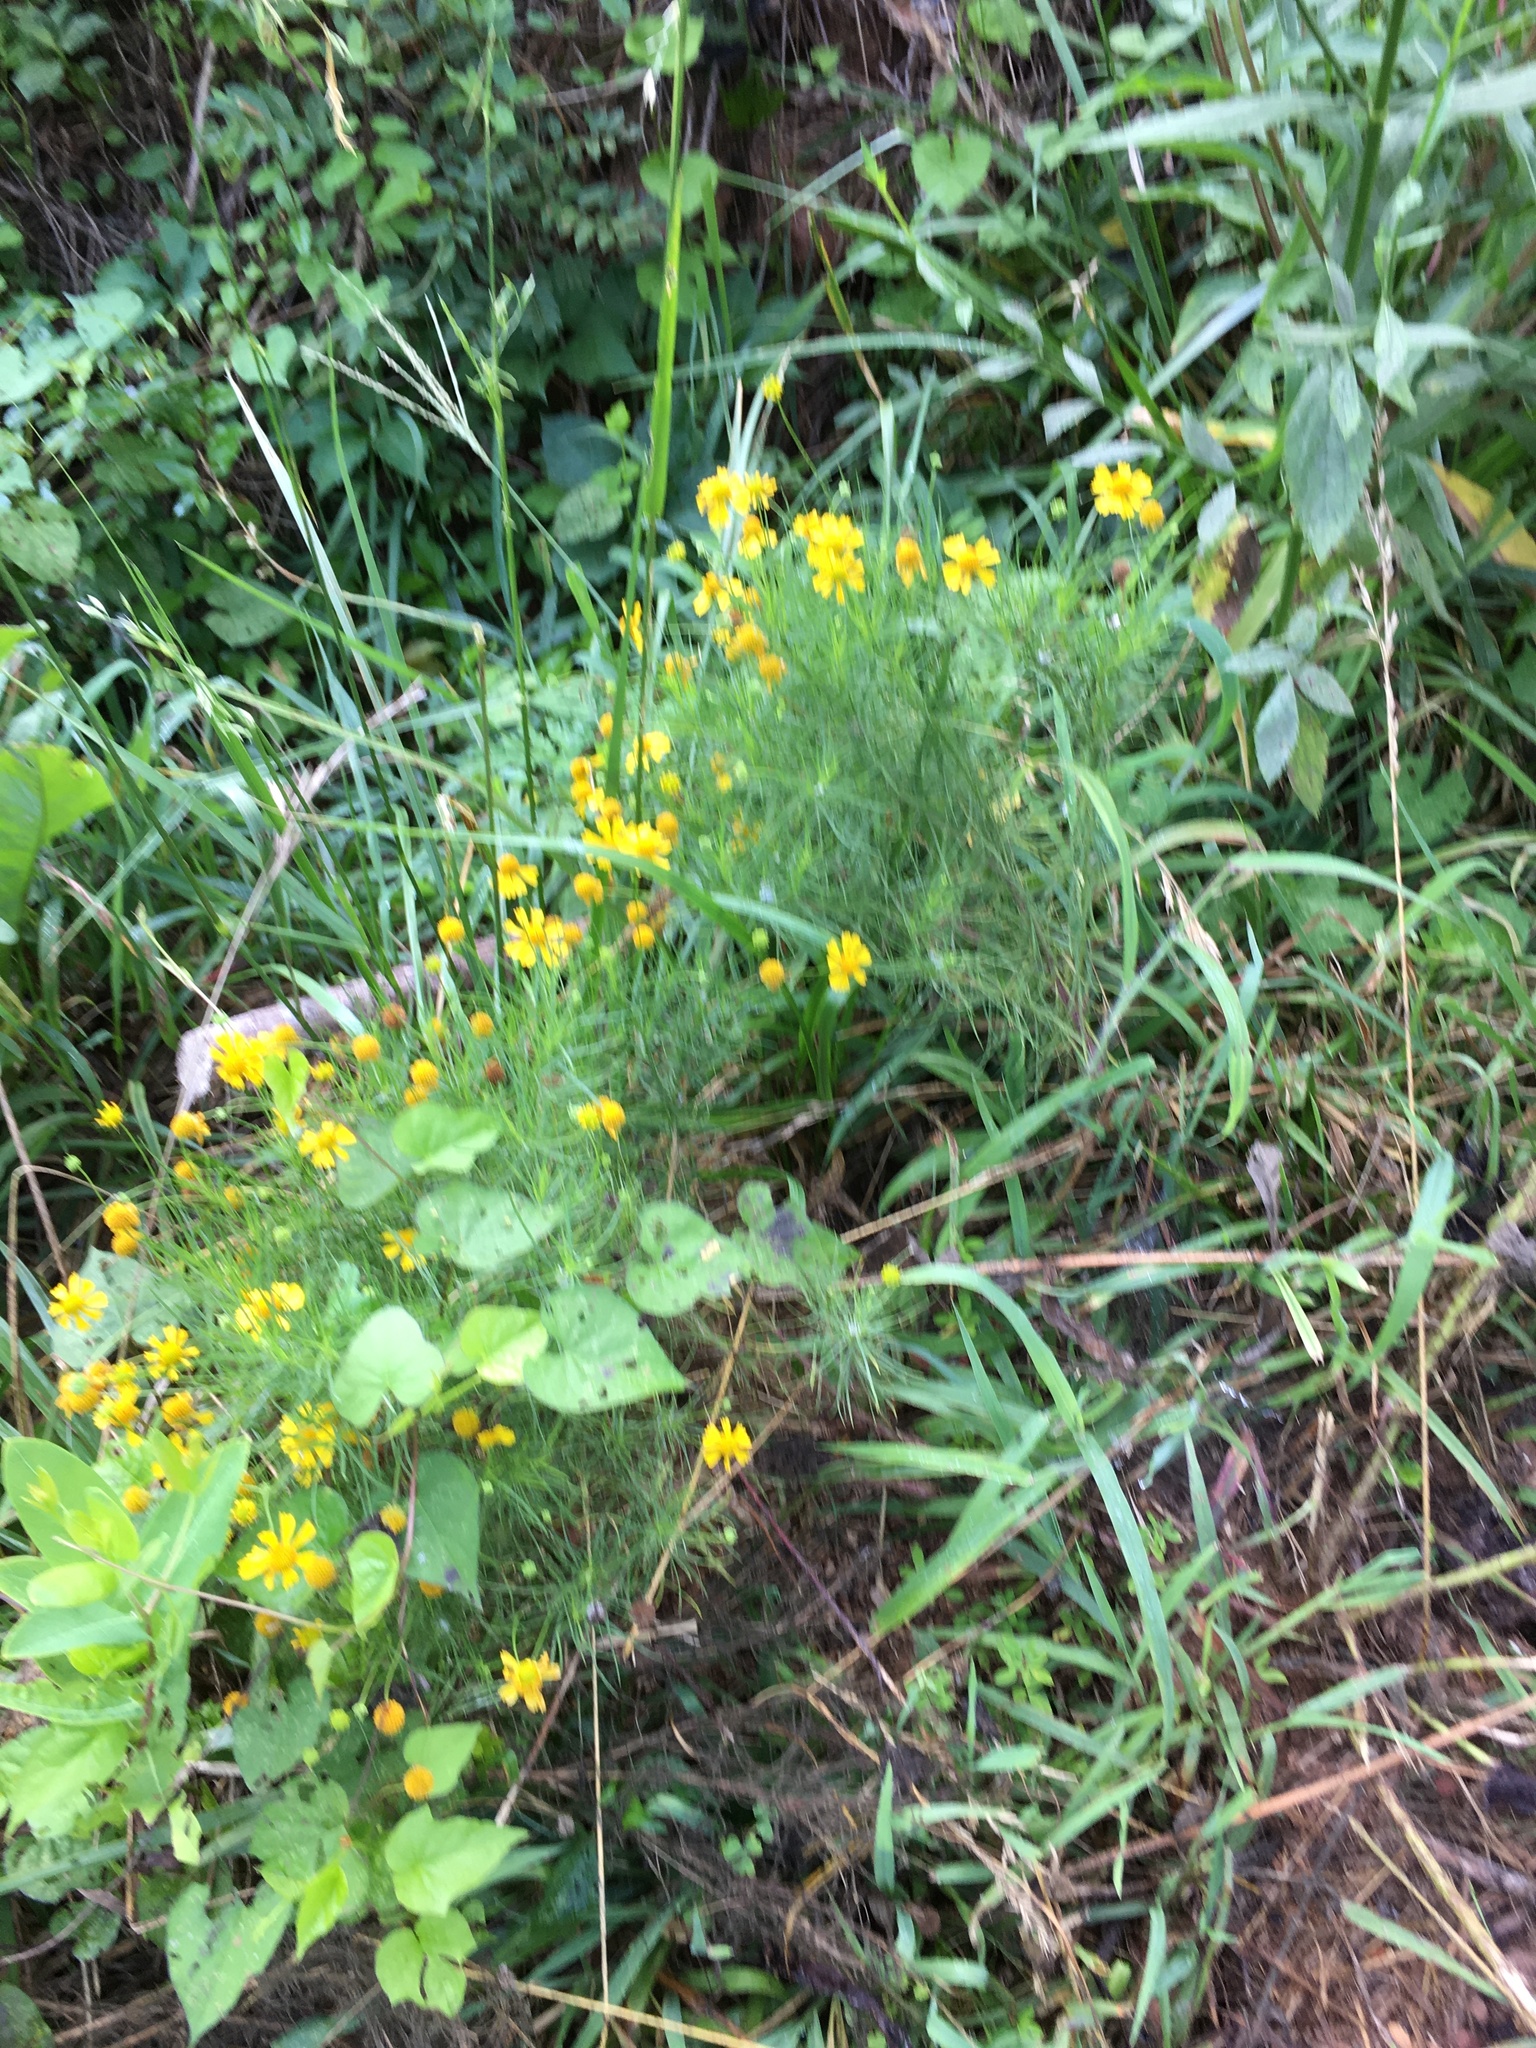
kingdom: Plantae
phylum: Tracheophyta
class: Magnoliopsida
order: Asterales
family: Asteraceae
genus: Helenium
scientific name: Helenium amarum
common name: Bitter sneezeweed
